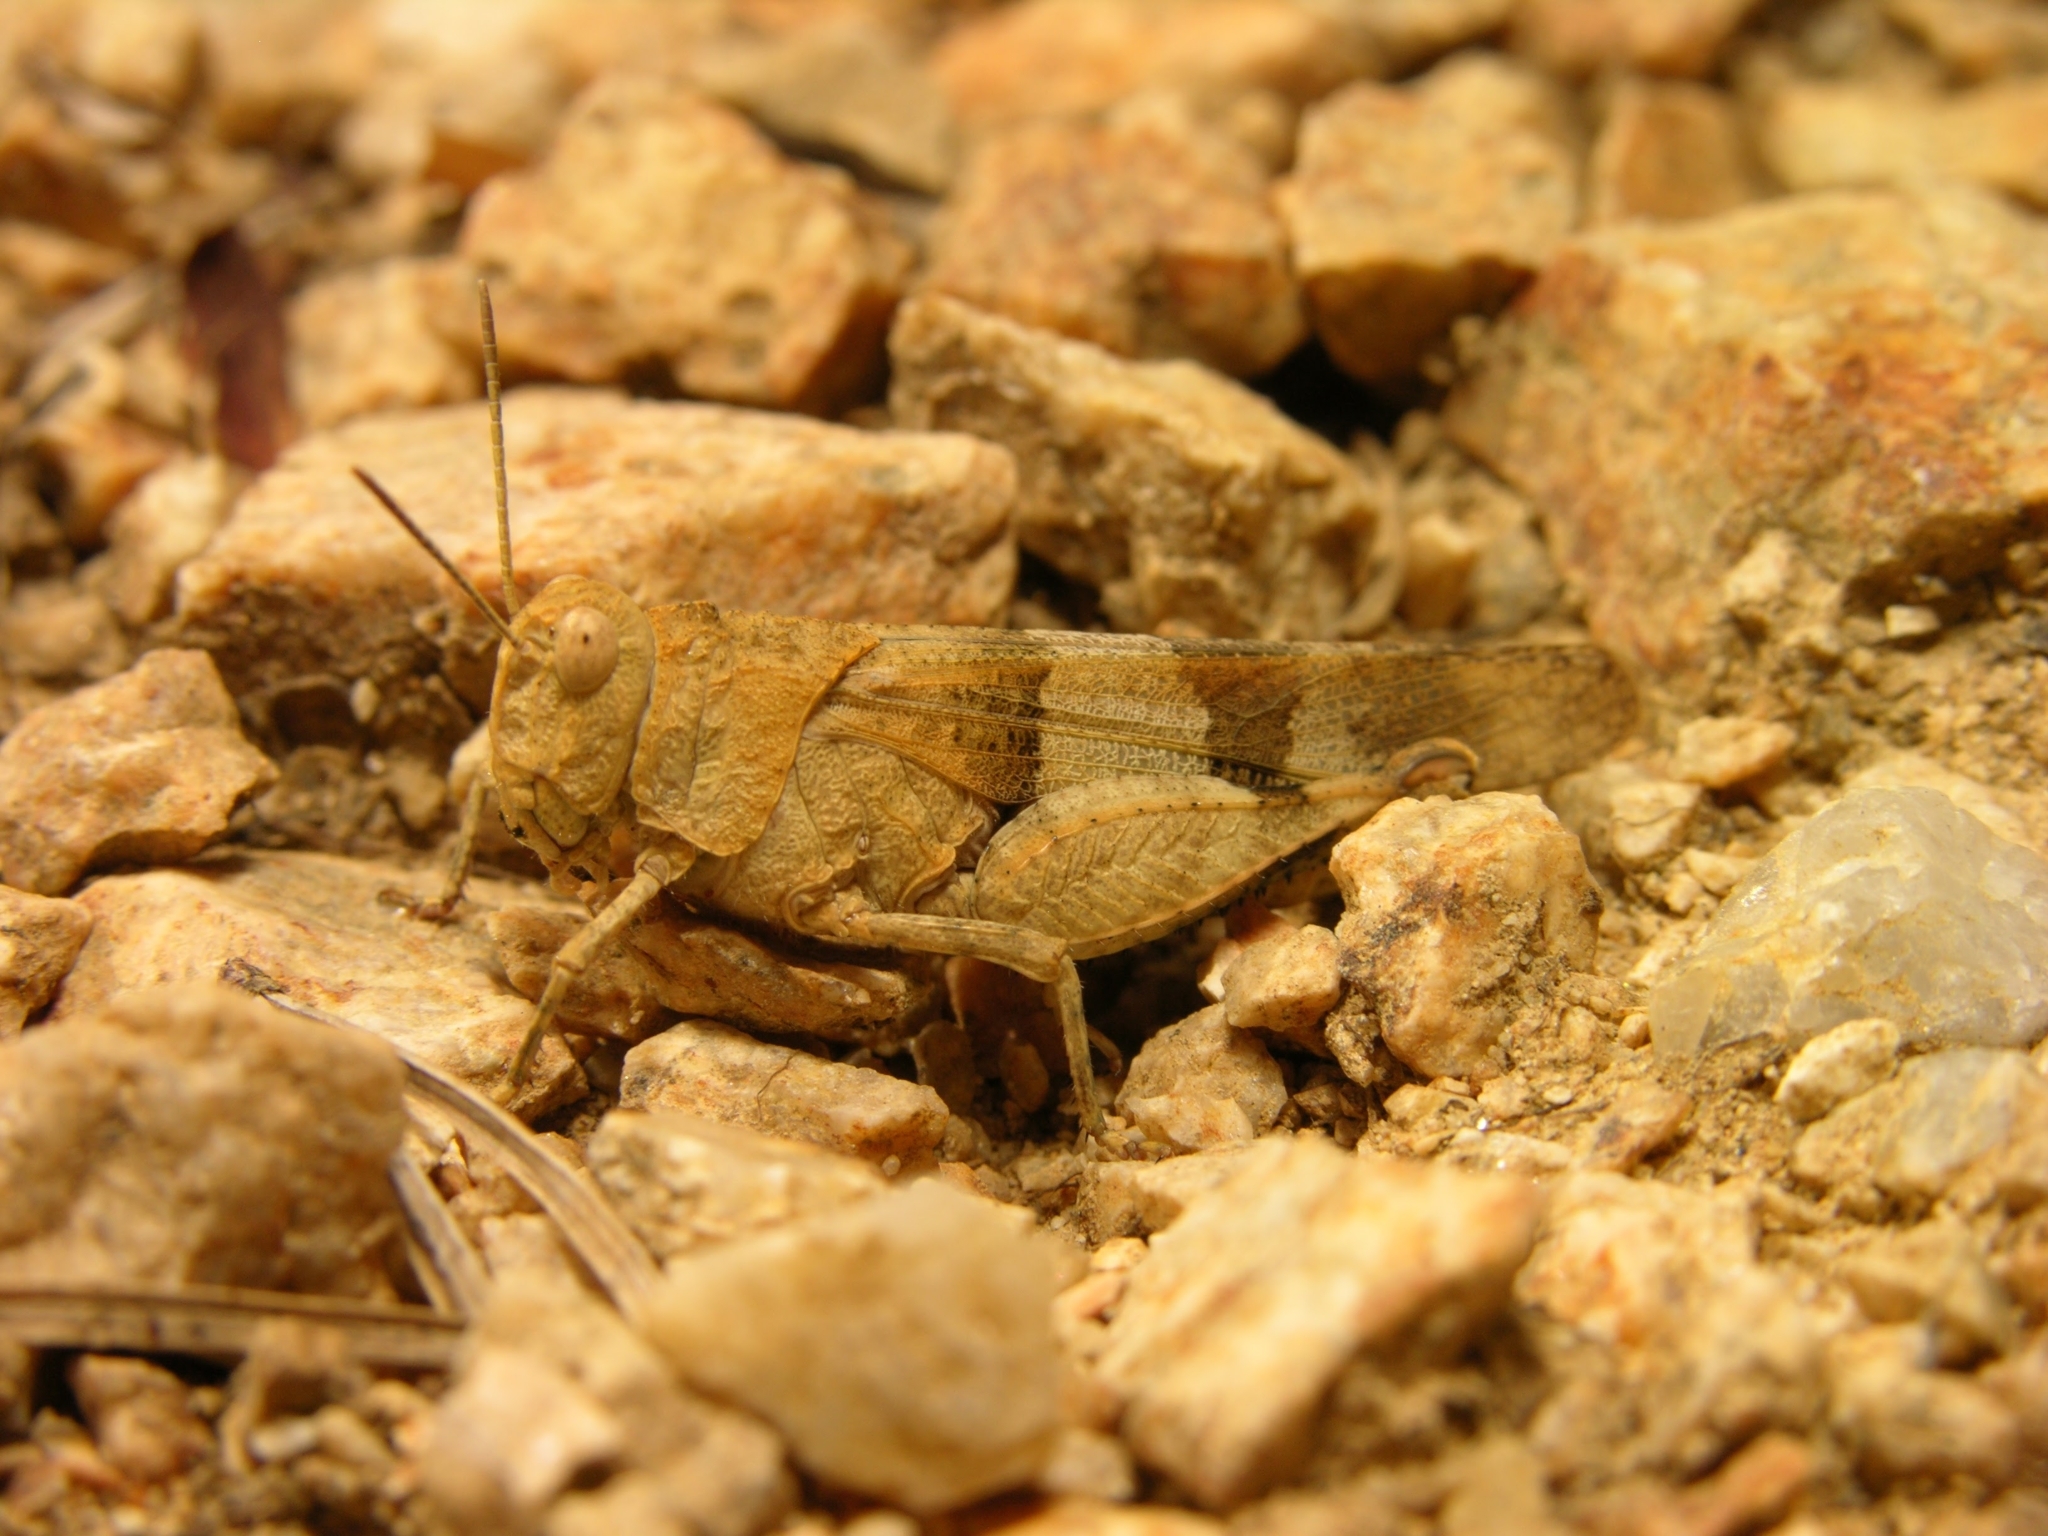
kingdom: Animalia
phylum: Arthropoda
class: Insecta
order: Orthoptera
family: Acrididae
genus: Oedipoda
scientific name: Oedipoda caerulescens
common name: Blue-winged grasshopper
